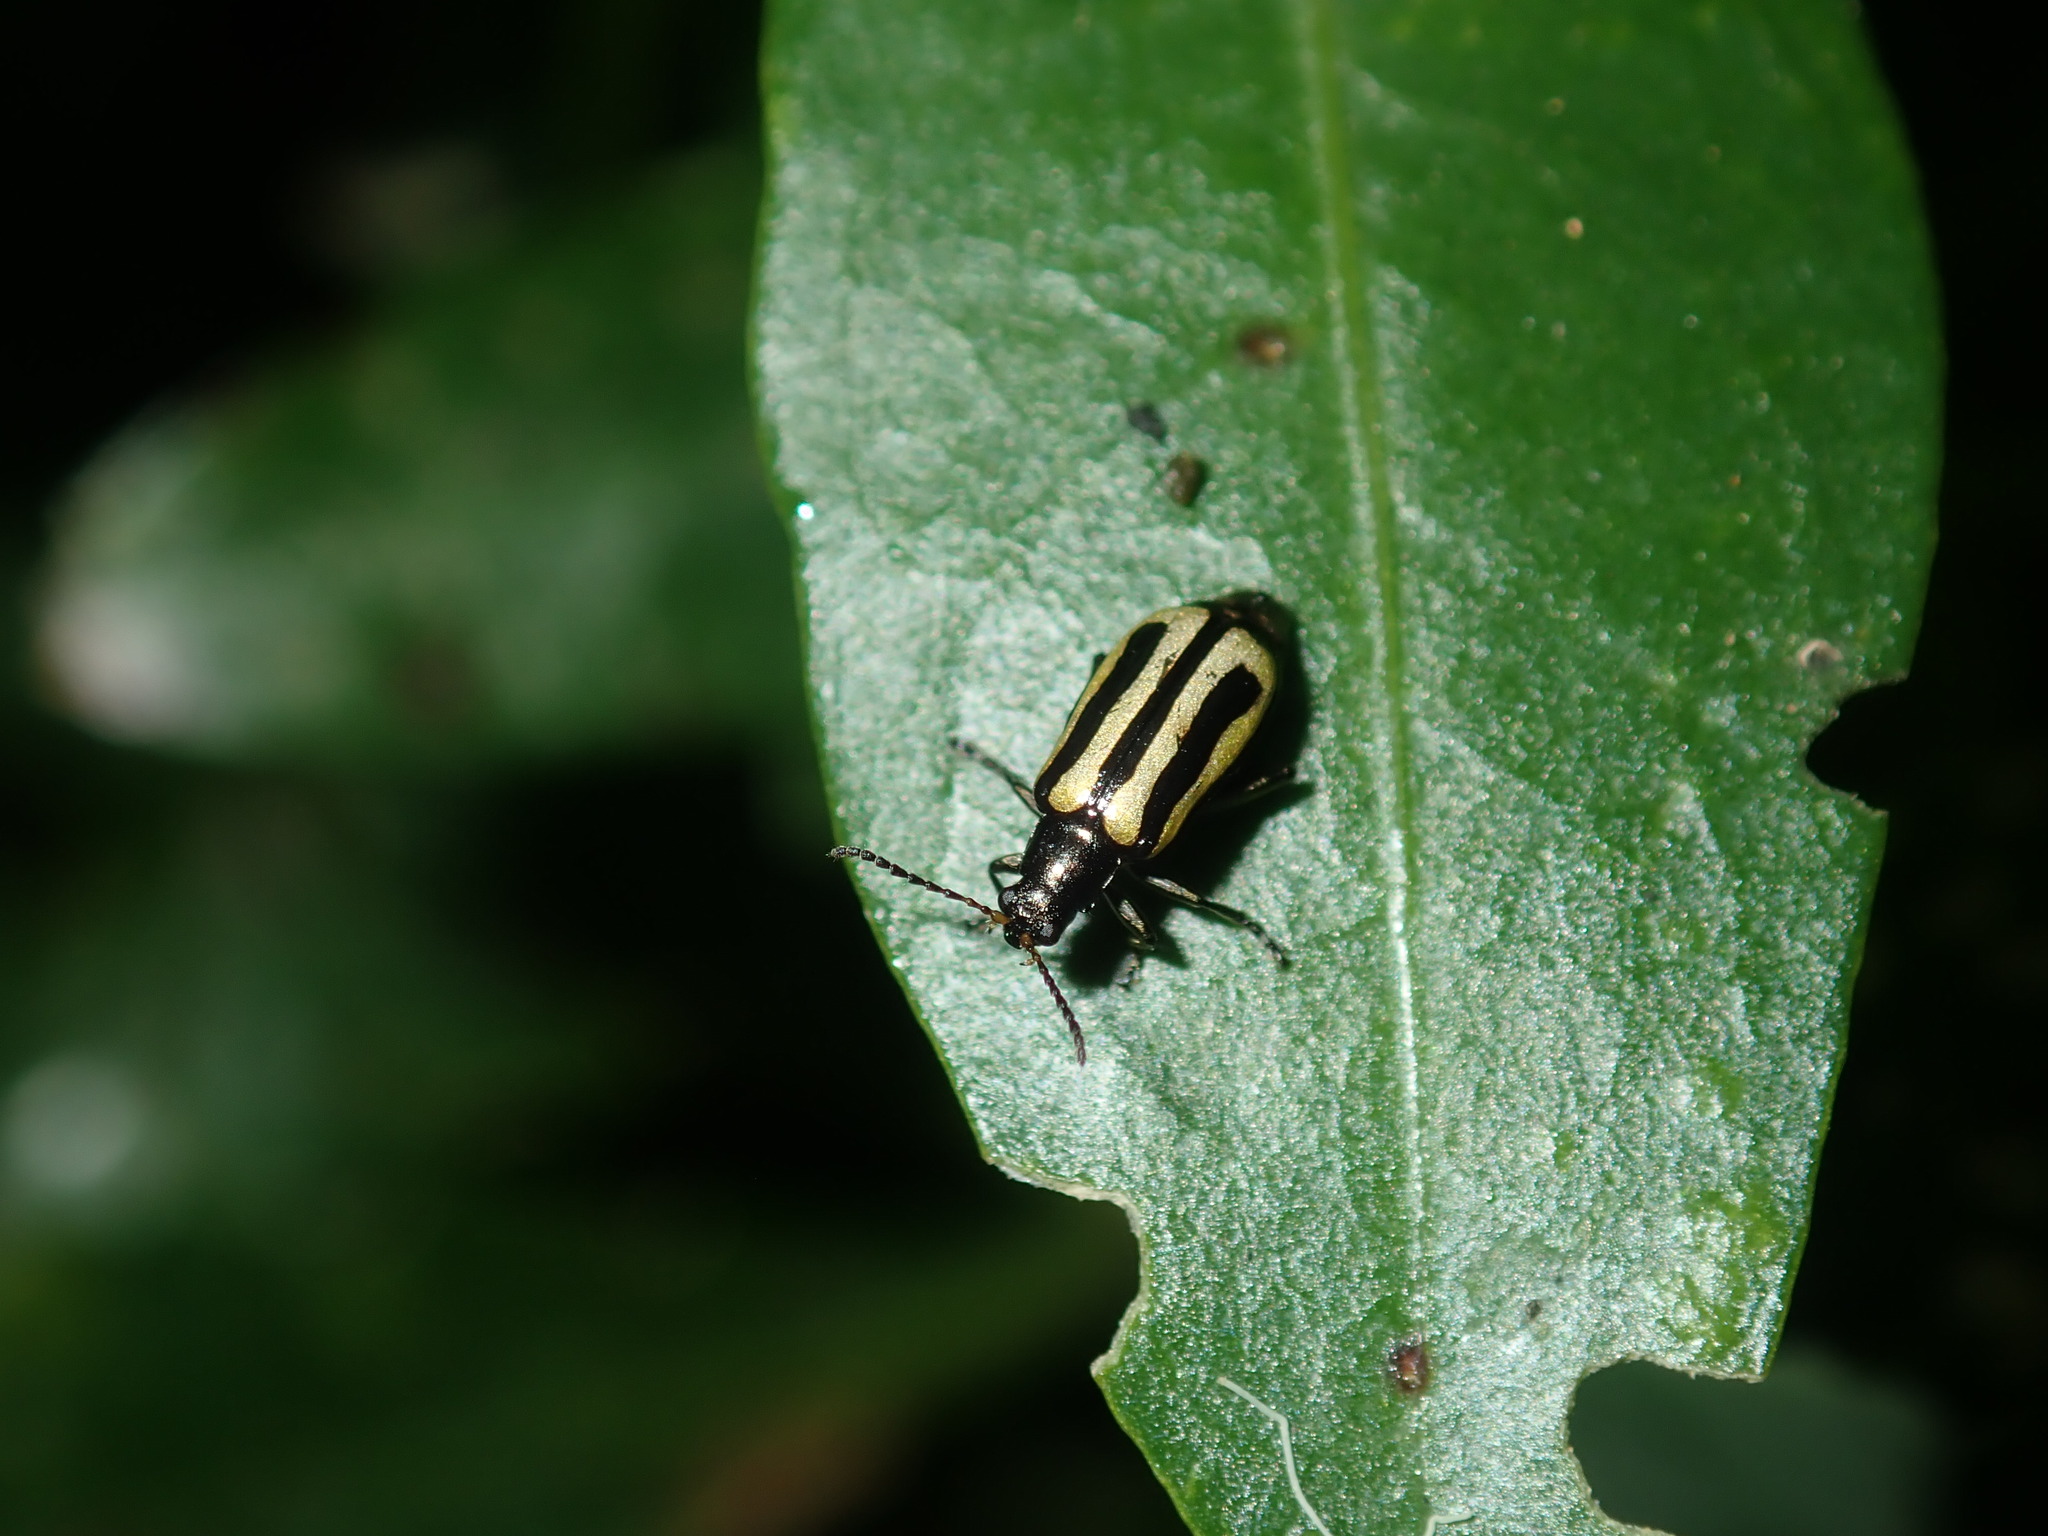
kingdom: Animalia
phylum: Arthropoda
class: Insecta
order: Coleoptera
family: Chrysomelidae
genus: Agasicles
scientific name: Agasicles hygrophila
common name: Alligatorweed flea beetle
